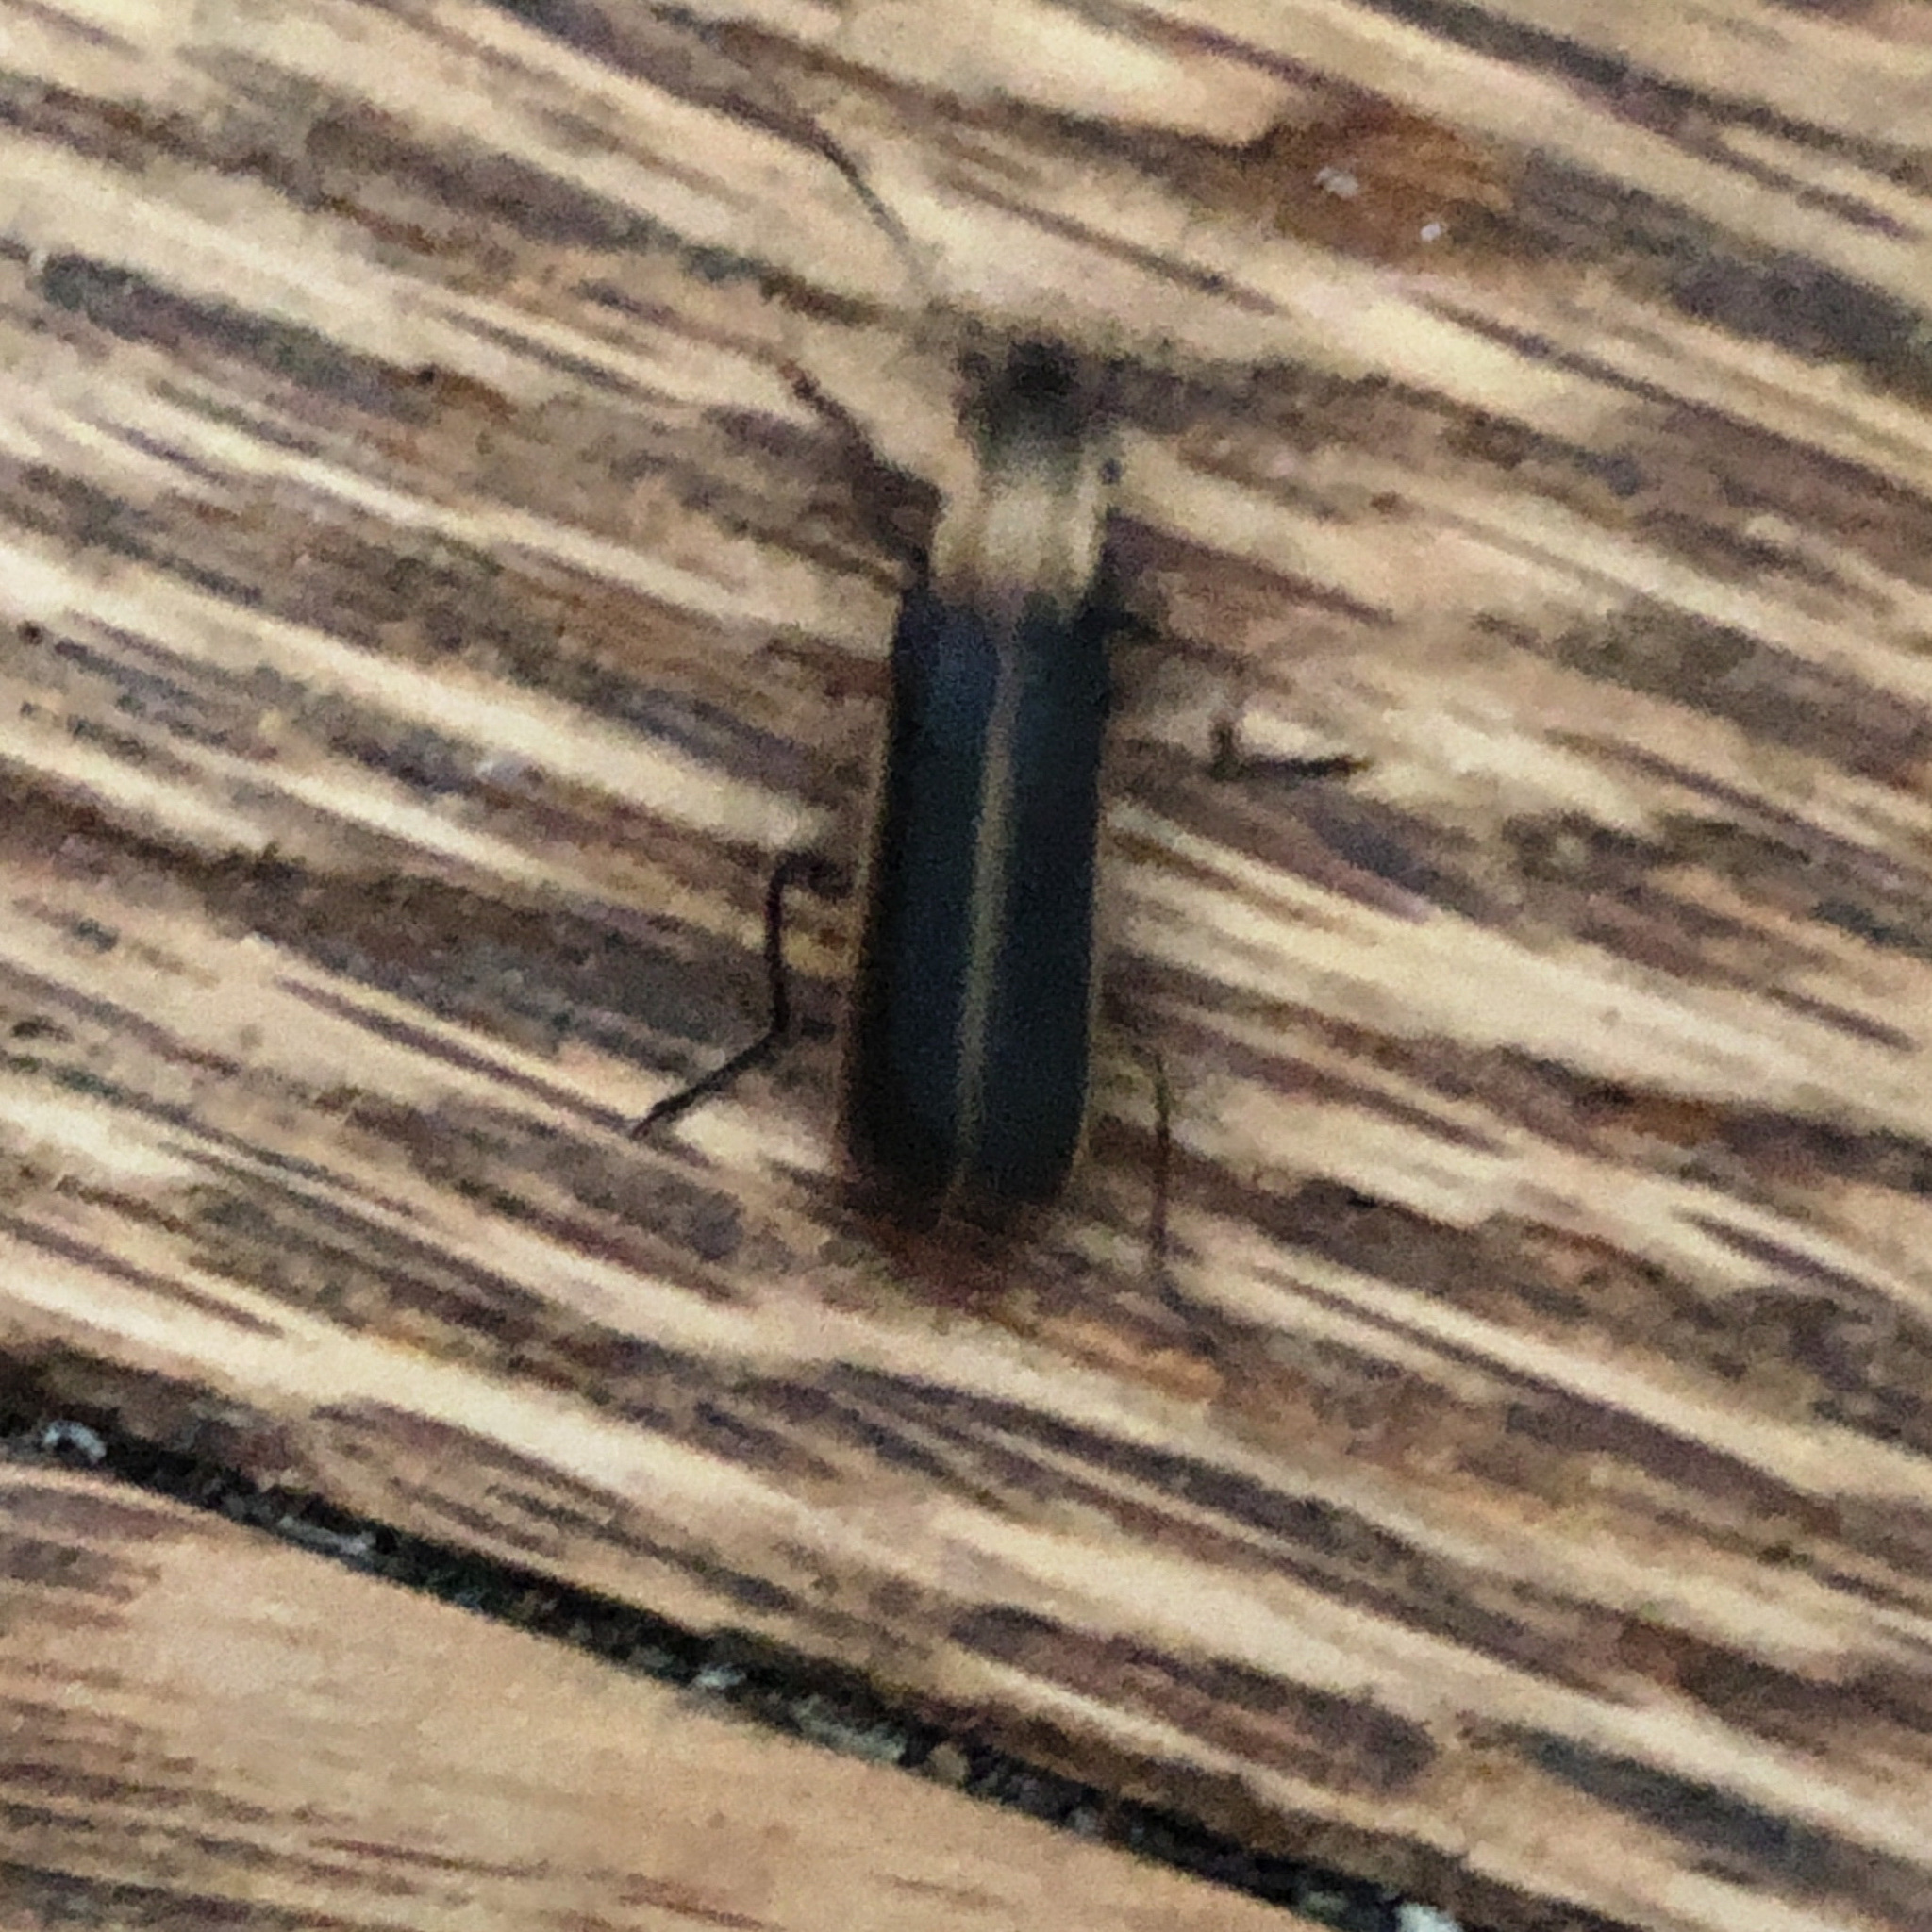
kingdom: Animalia
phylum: Arthropoda
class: Insecta
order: Coleoptera
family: Cantharidae
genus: Podabrus
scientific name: Podabrus flavicollis
